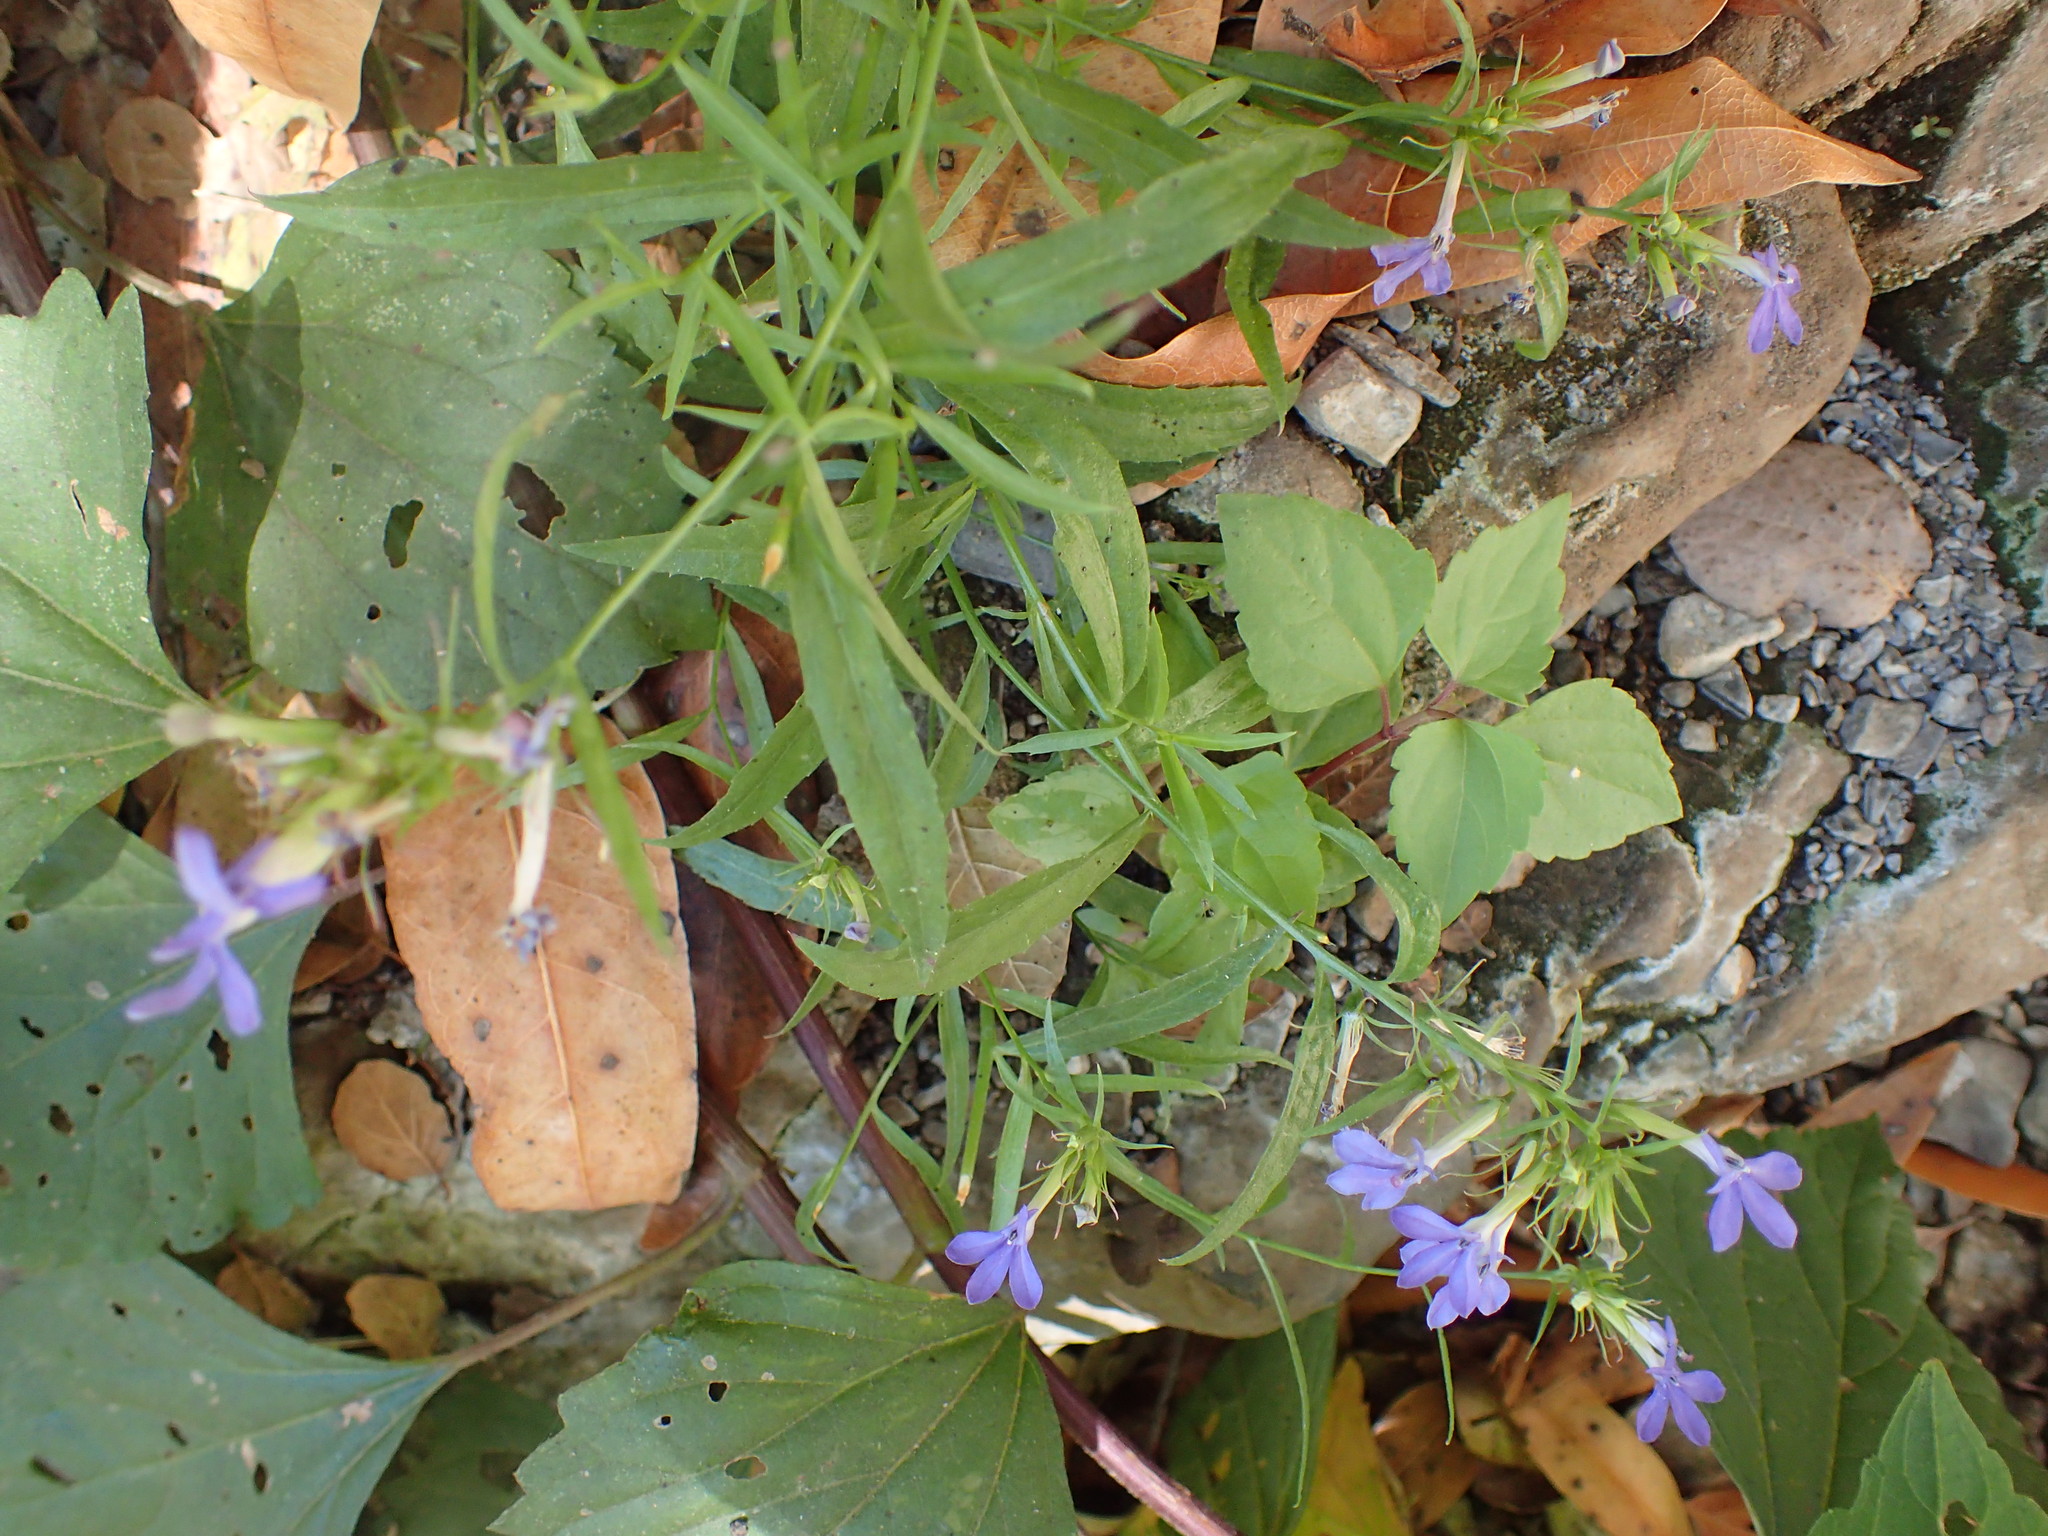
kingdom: Plantae
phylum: Tracheophyta
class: Magnoliopsida
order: Asterales
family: Campanulaceae
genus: Palmerella
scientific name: Palmerella debilis
